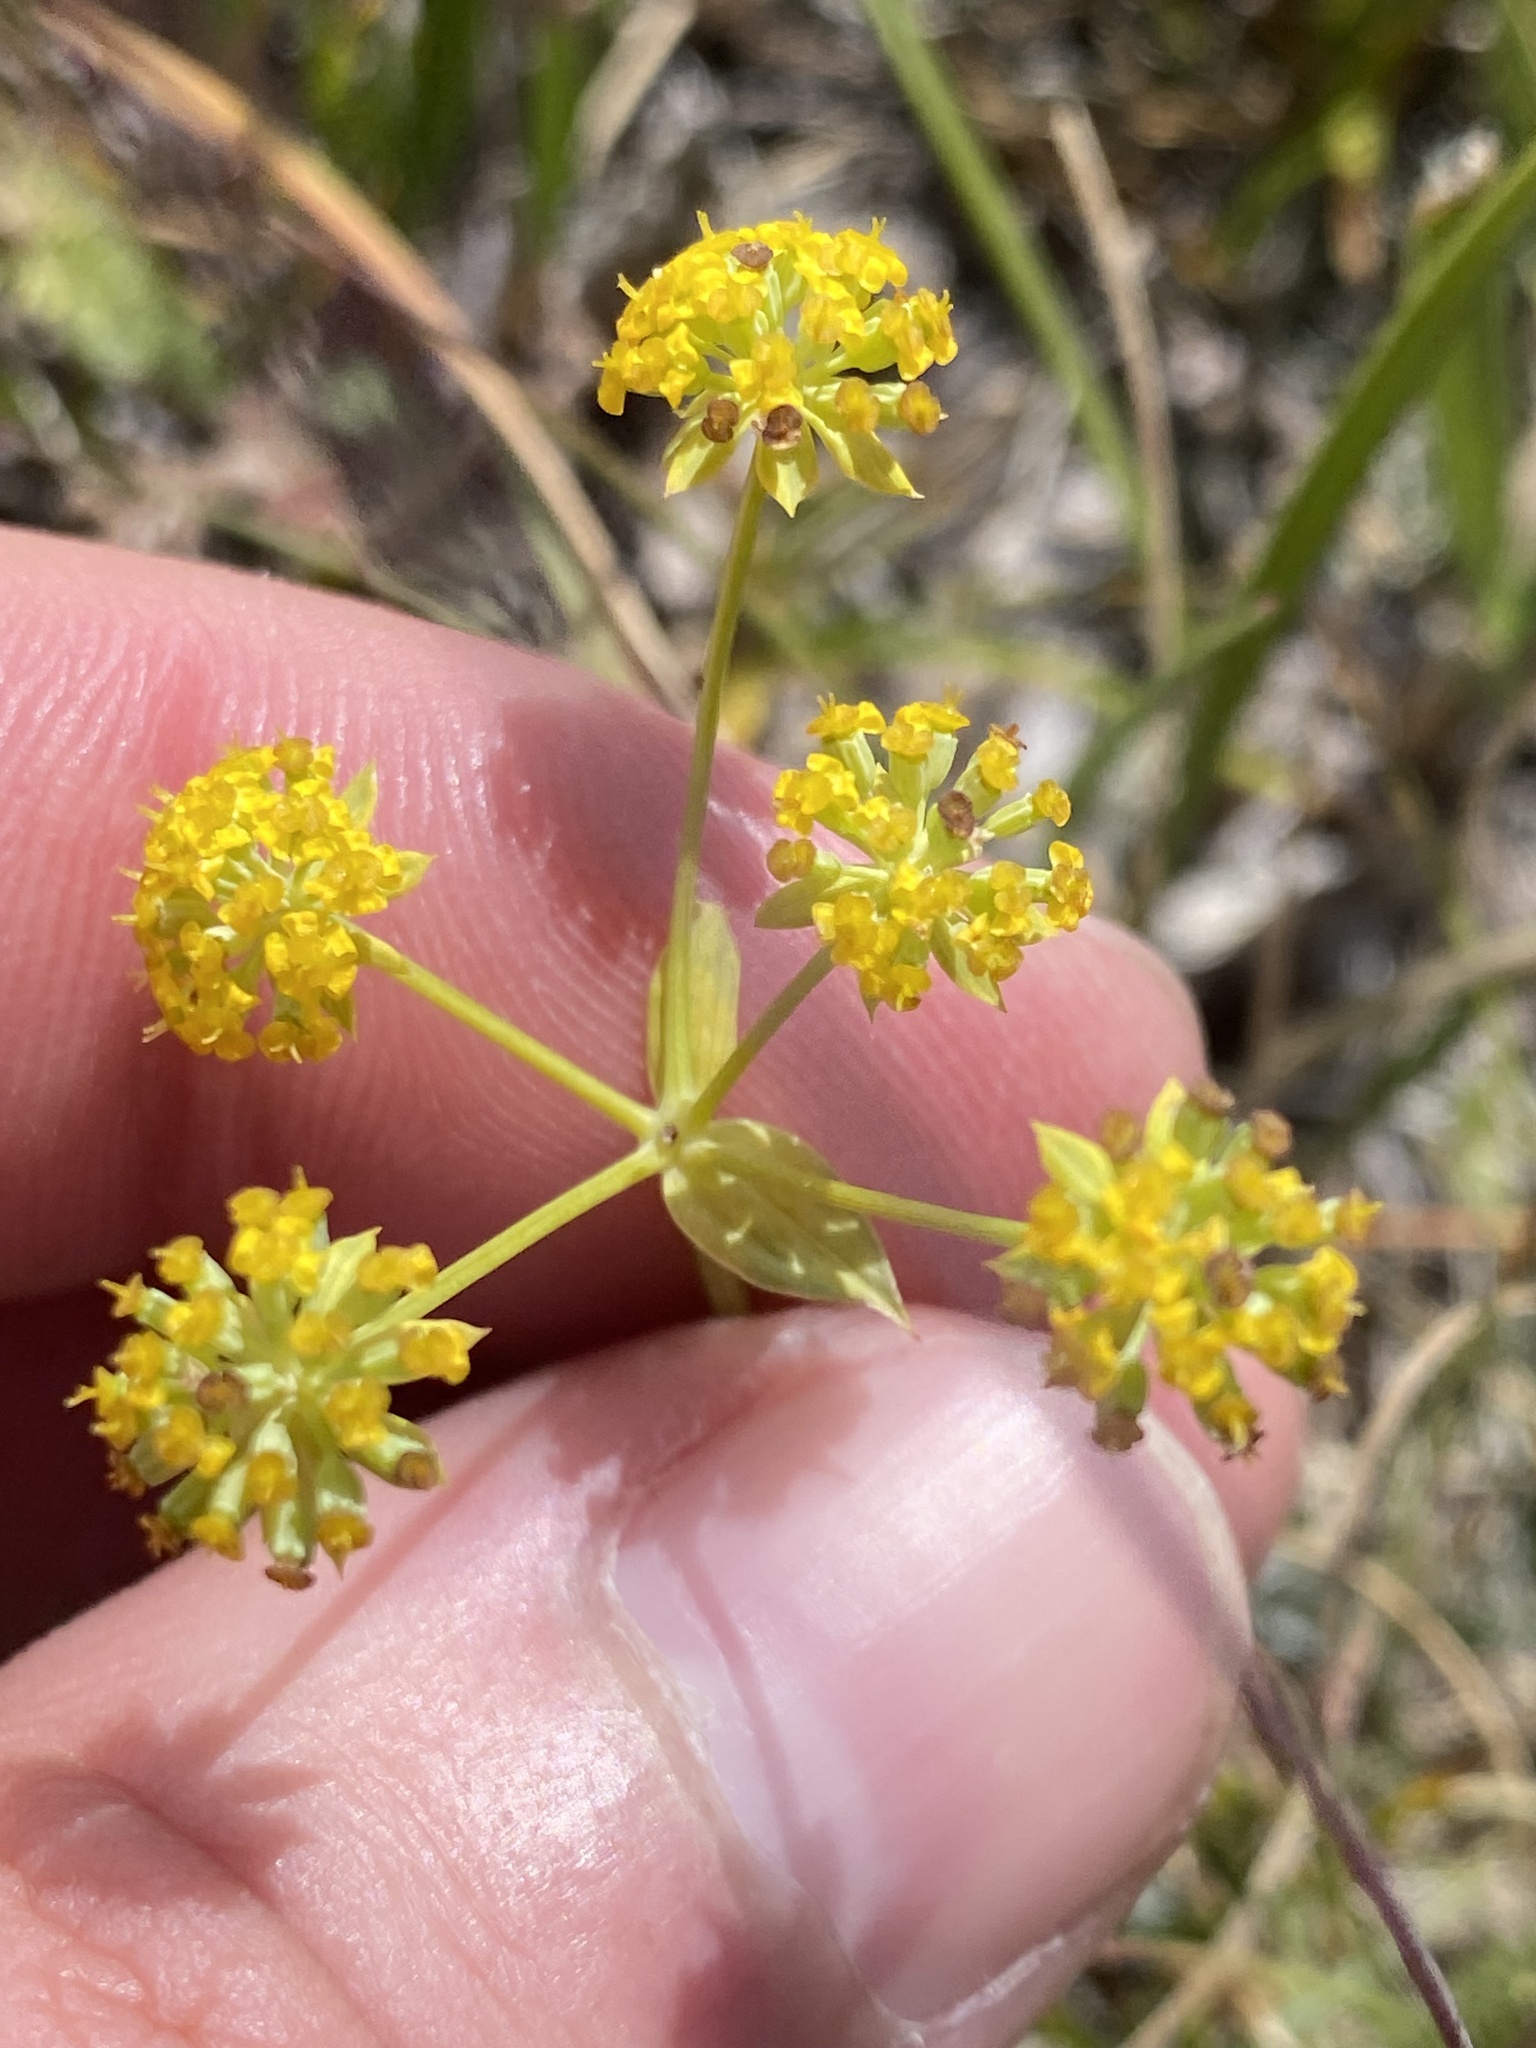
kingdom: Plantae
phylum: Tracheophyta
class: Magnoliopsida
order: Apiales
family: Apiaceae
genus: Bupleurum
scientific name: Bupleurum americanum
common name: American thoroughwax
